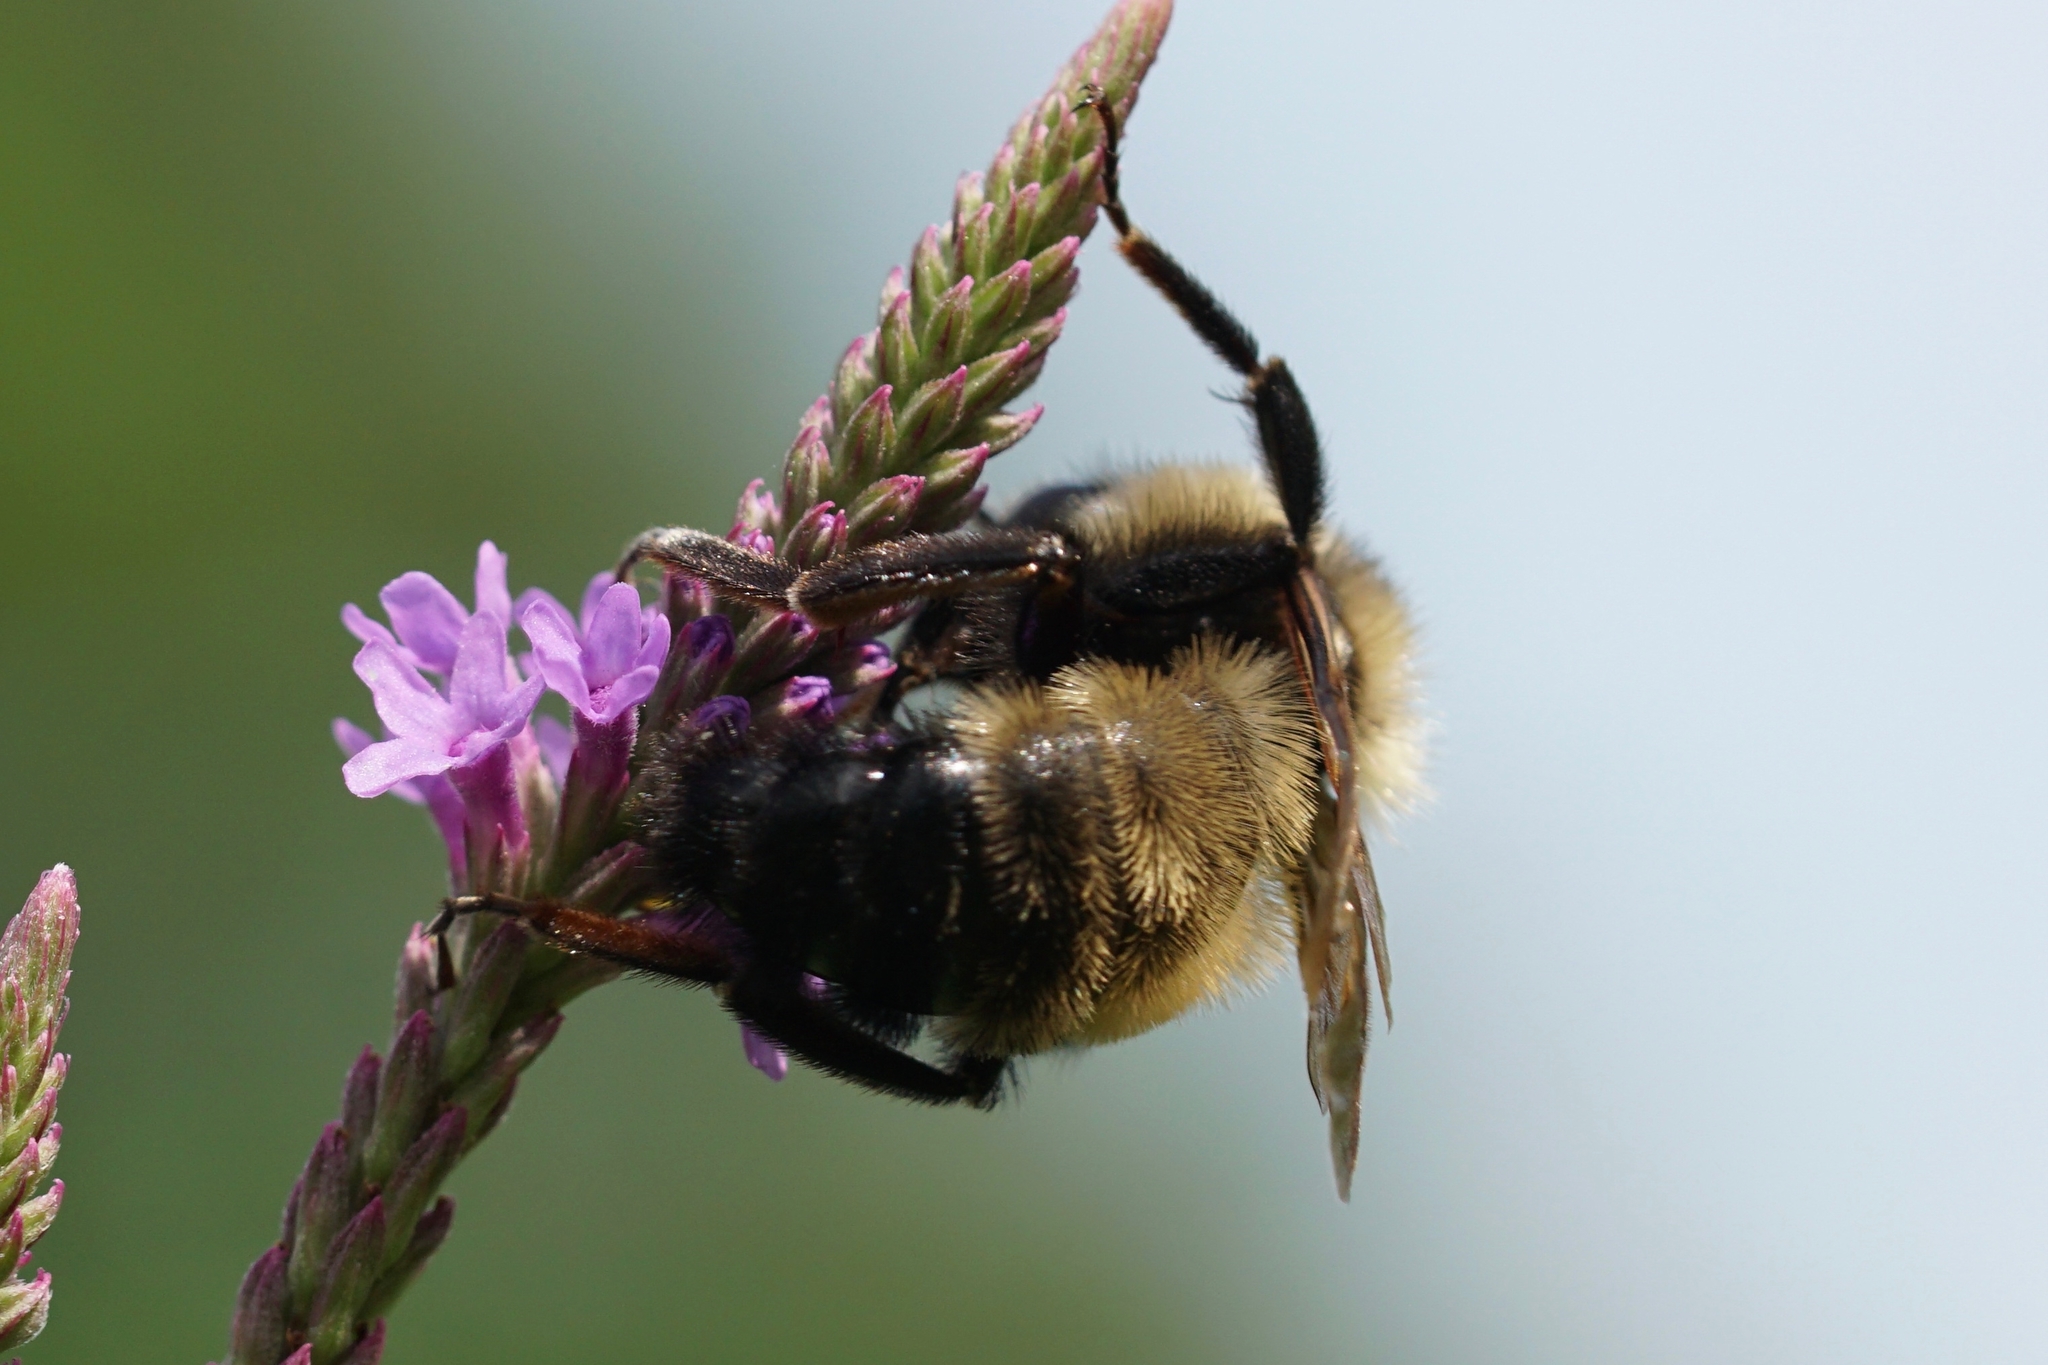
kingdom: Animalia
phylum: Arthropoda
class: Insecta
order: Hymenoptera
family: Apidae
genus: Bombus
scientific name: Bombus citrinus
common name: Lemon cuckoo bumble bee
